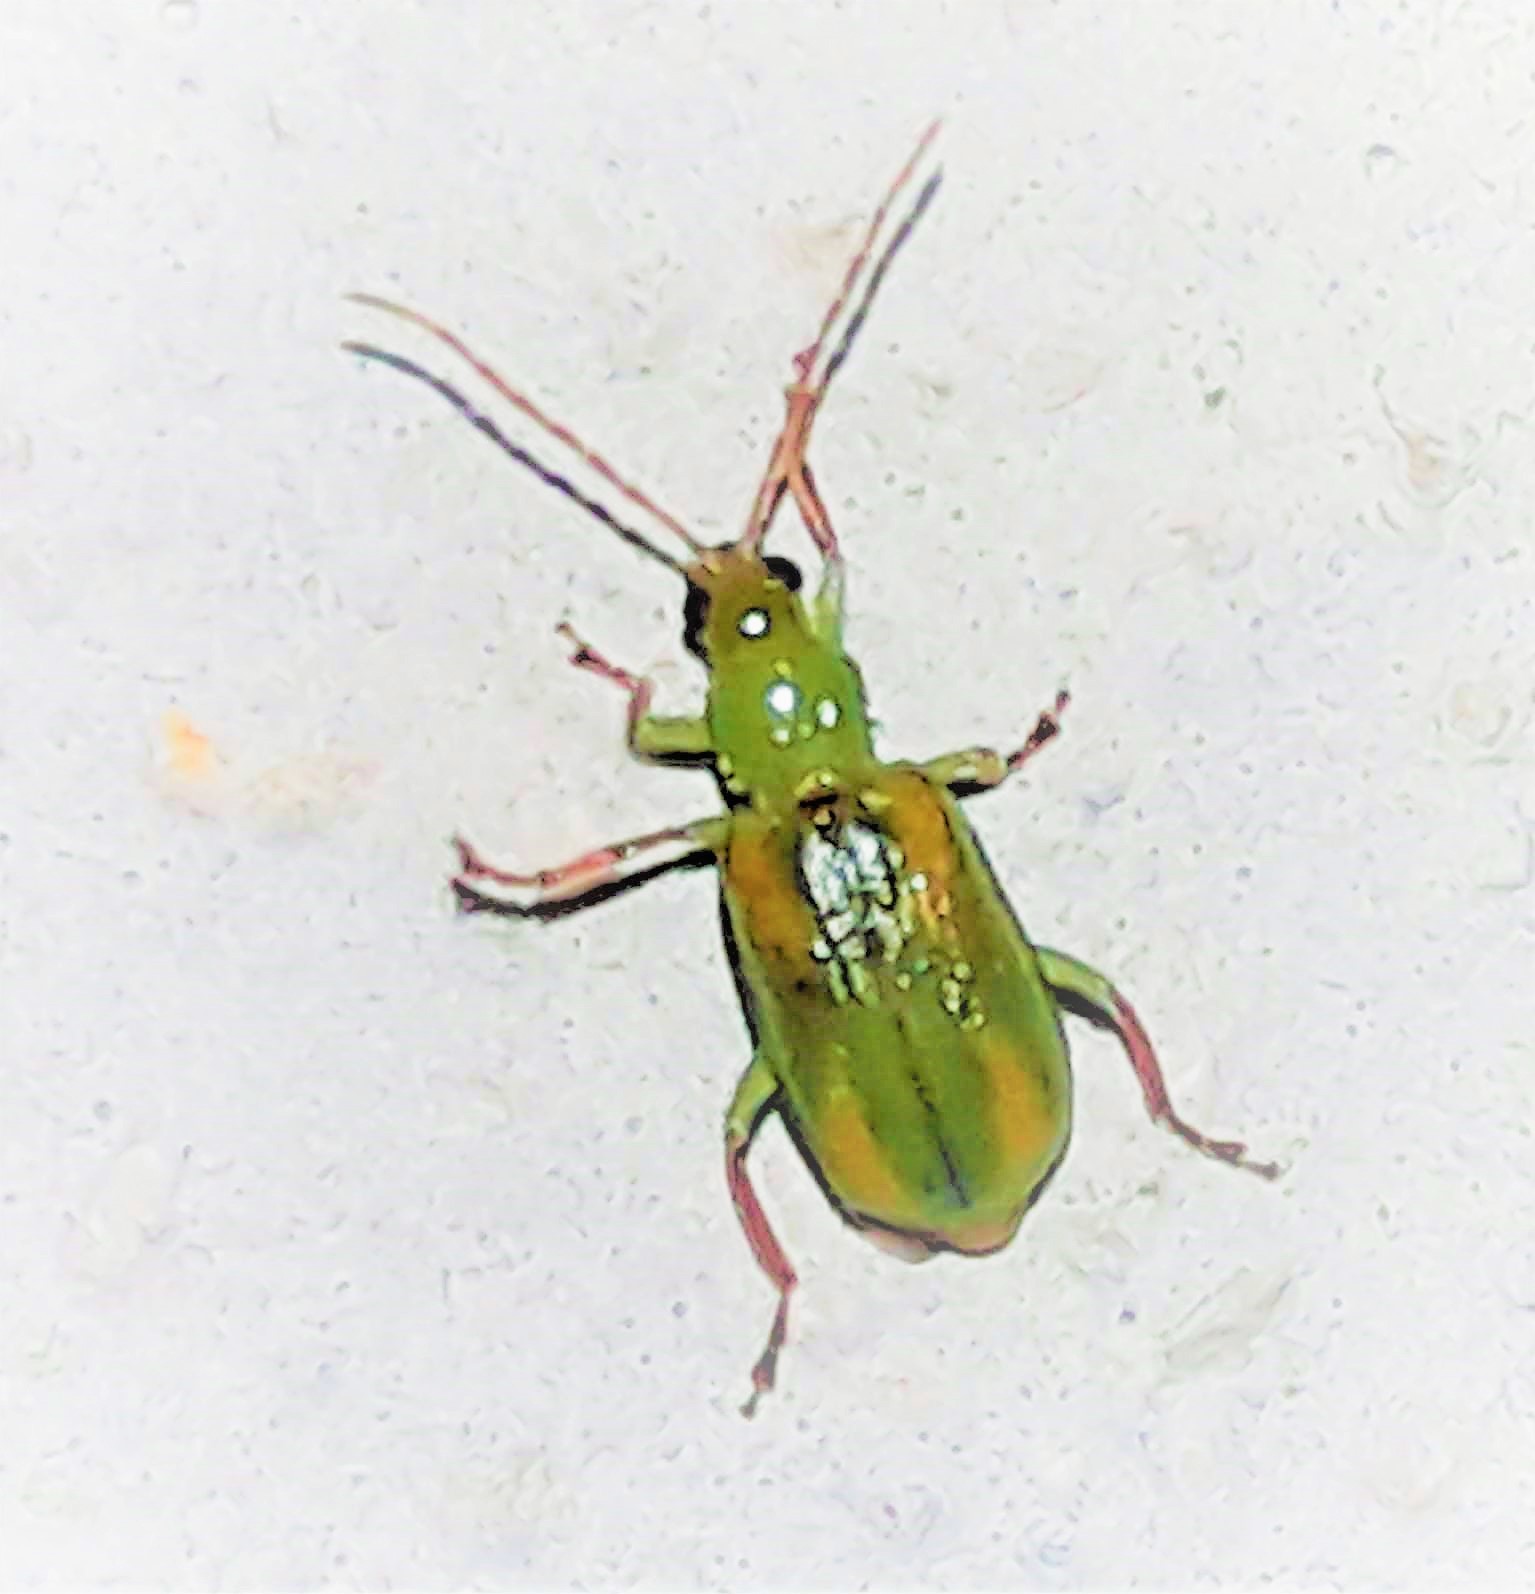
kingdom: Animalia
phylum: Arthropoda
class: Insecta
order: Coleoptera
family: Chrysomelidae
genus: Diabrotica
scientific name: Diabrotica porracea
